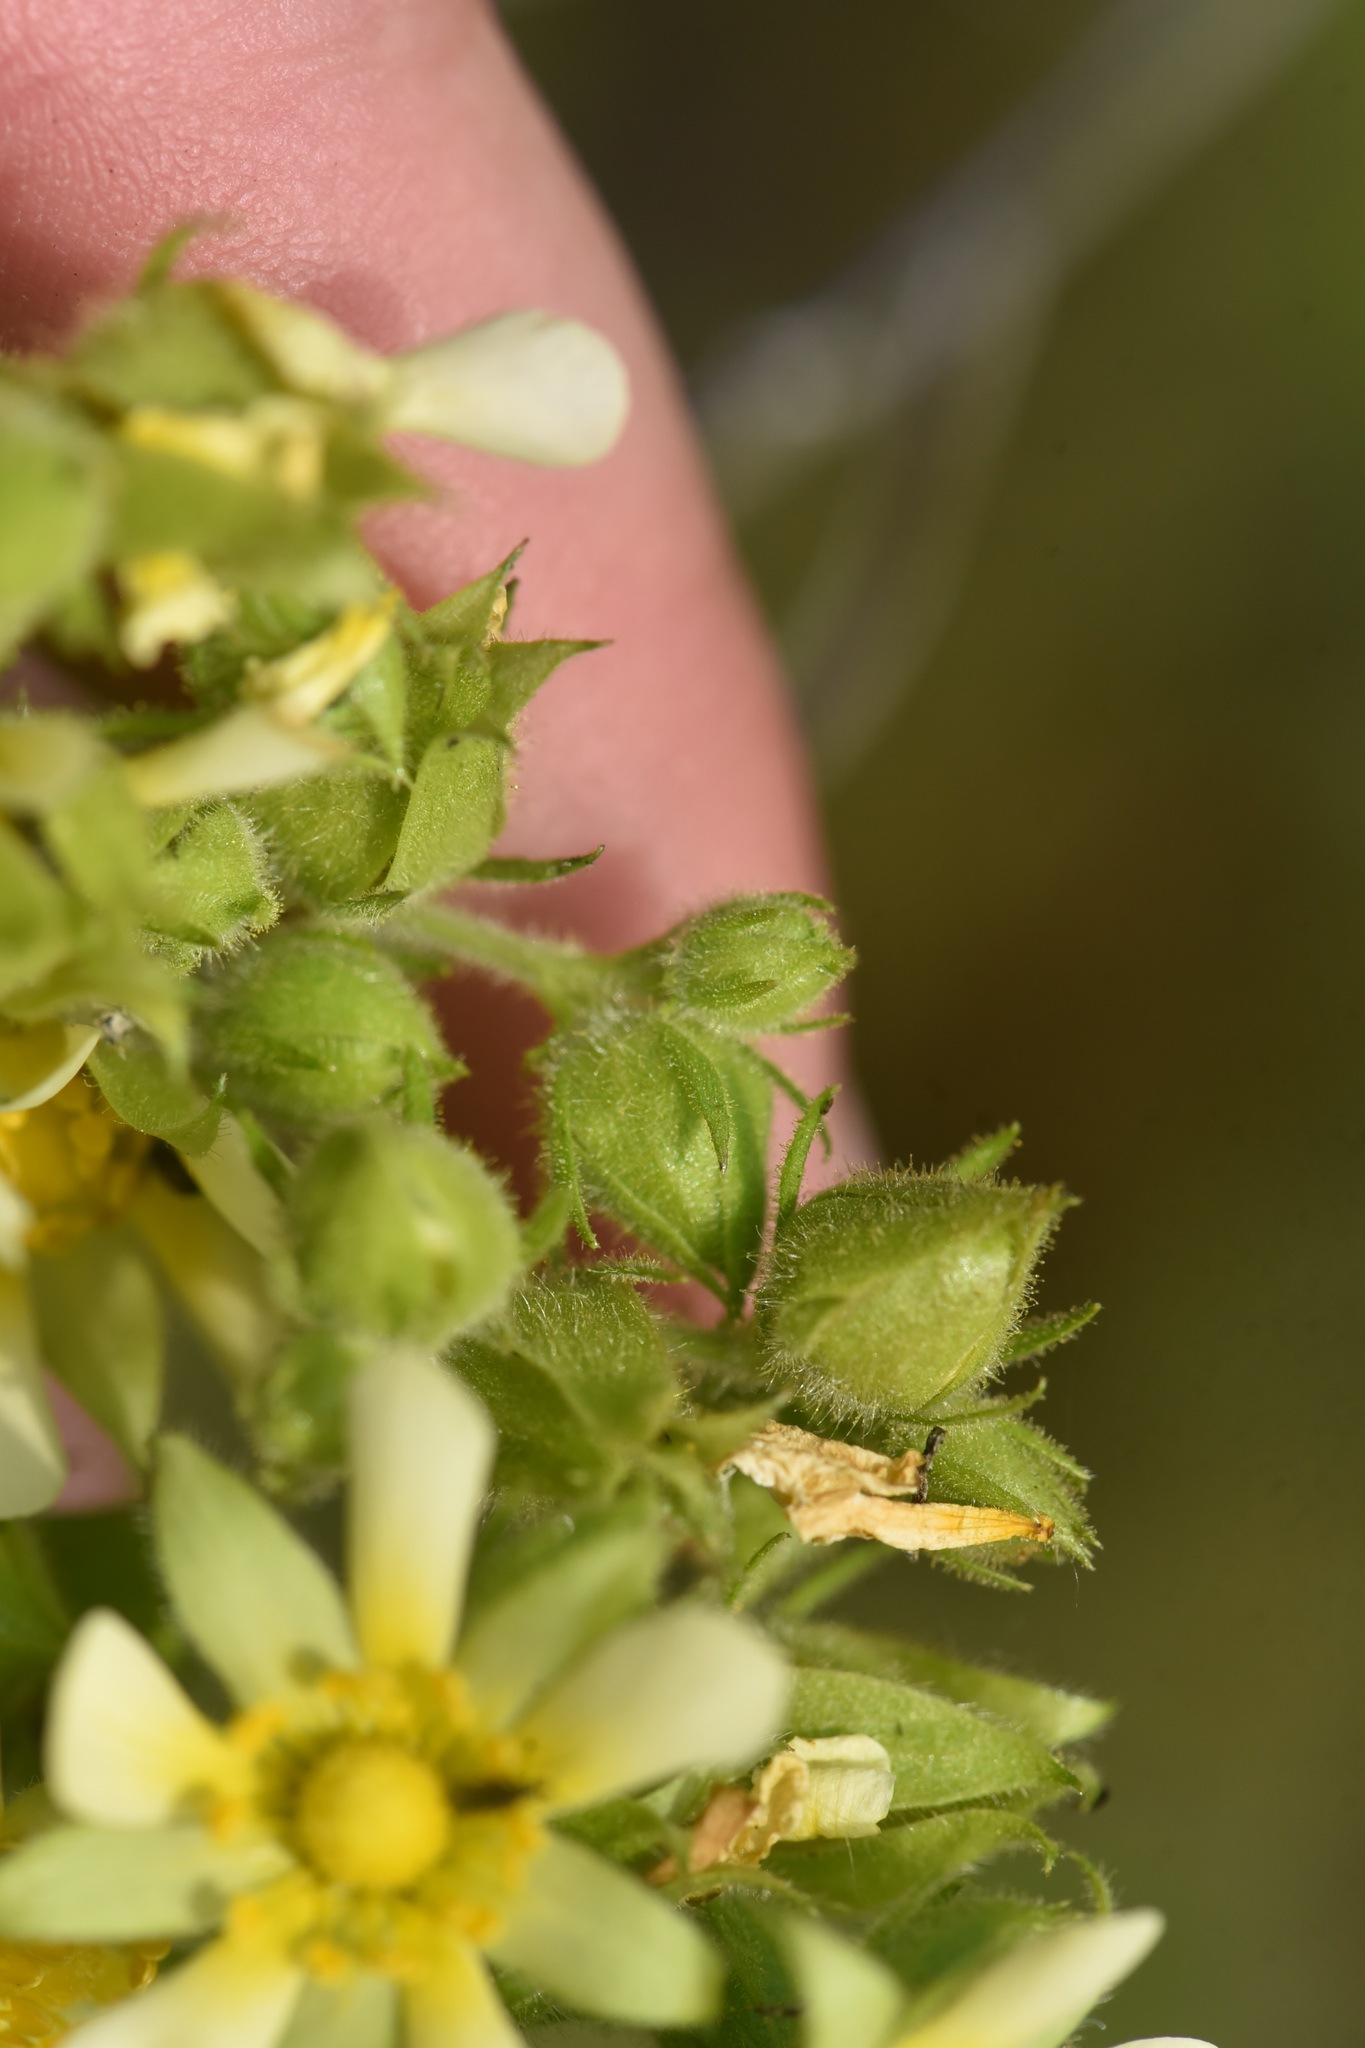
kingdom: Plantae
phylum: Tracheophyta
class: Magnoliopsida
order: Rosales
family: Rosaceae
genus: Drymocallis
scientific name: Drymocallis convallaria
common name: Cream cinquefoil
